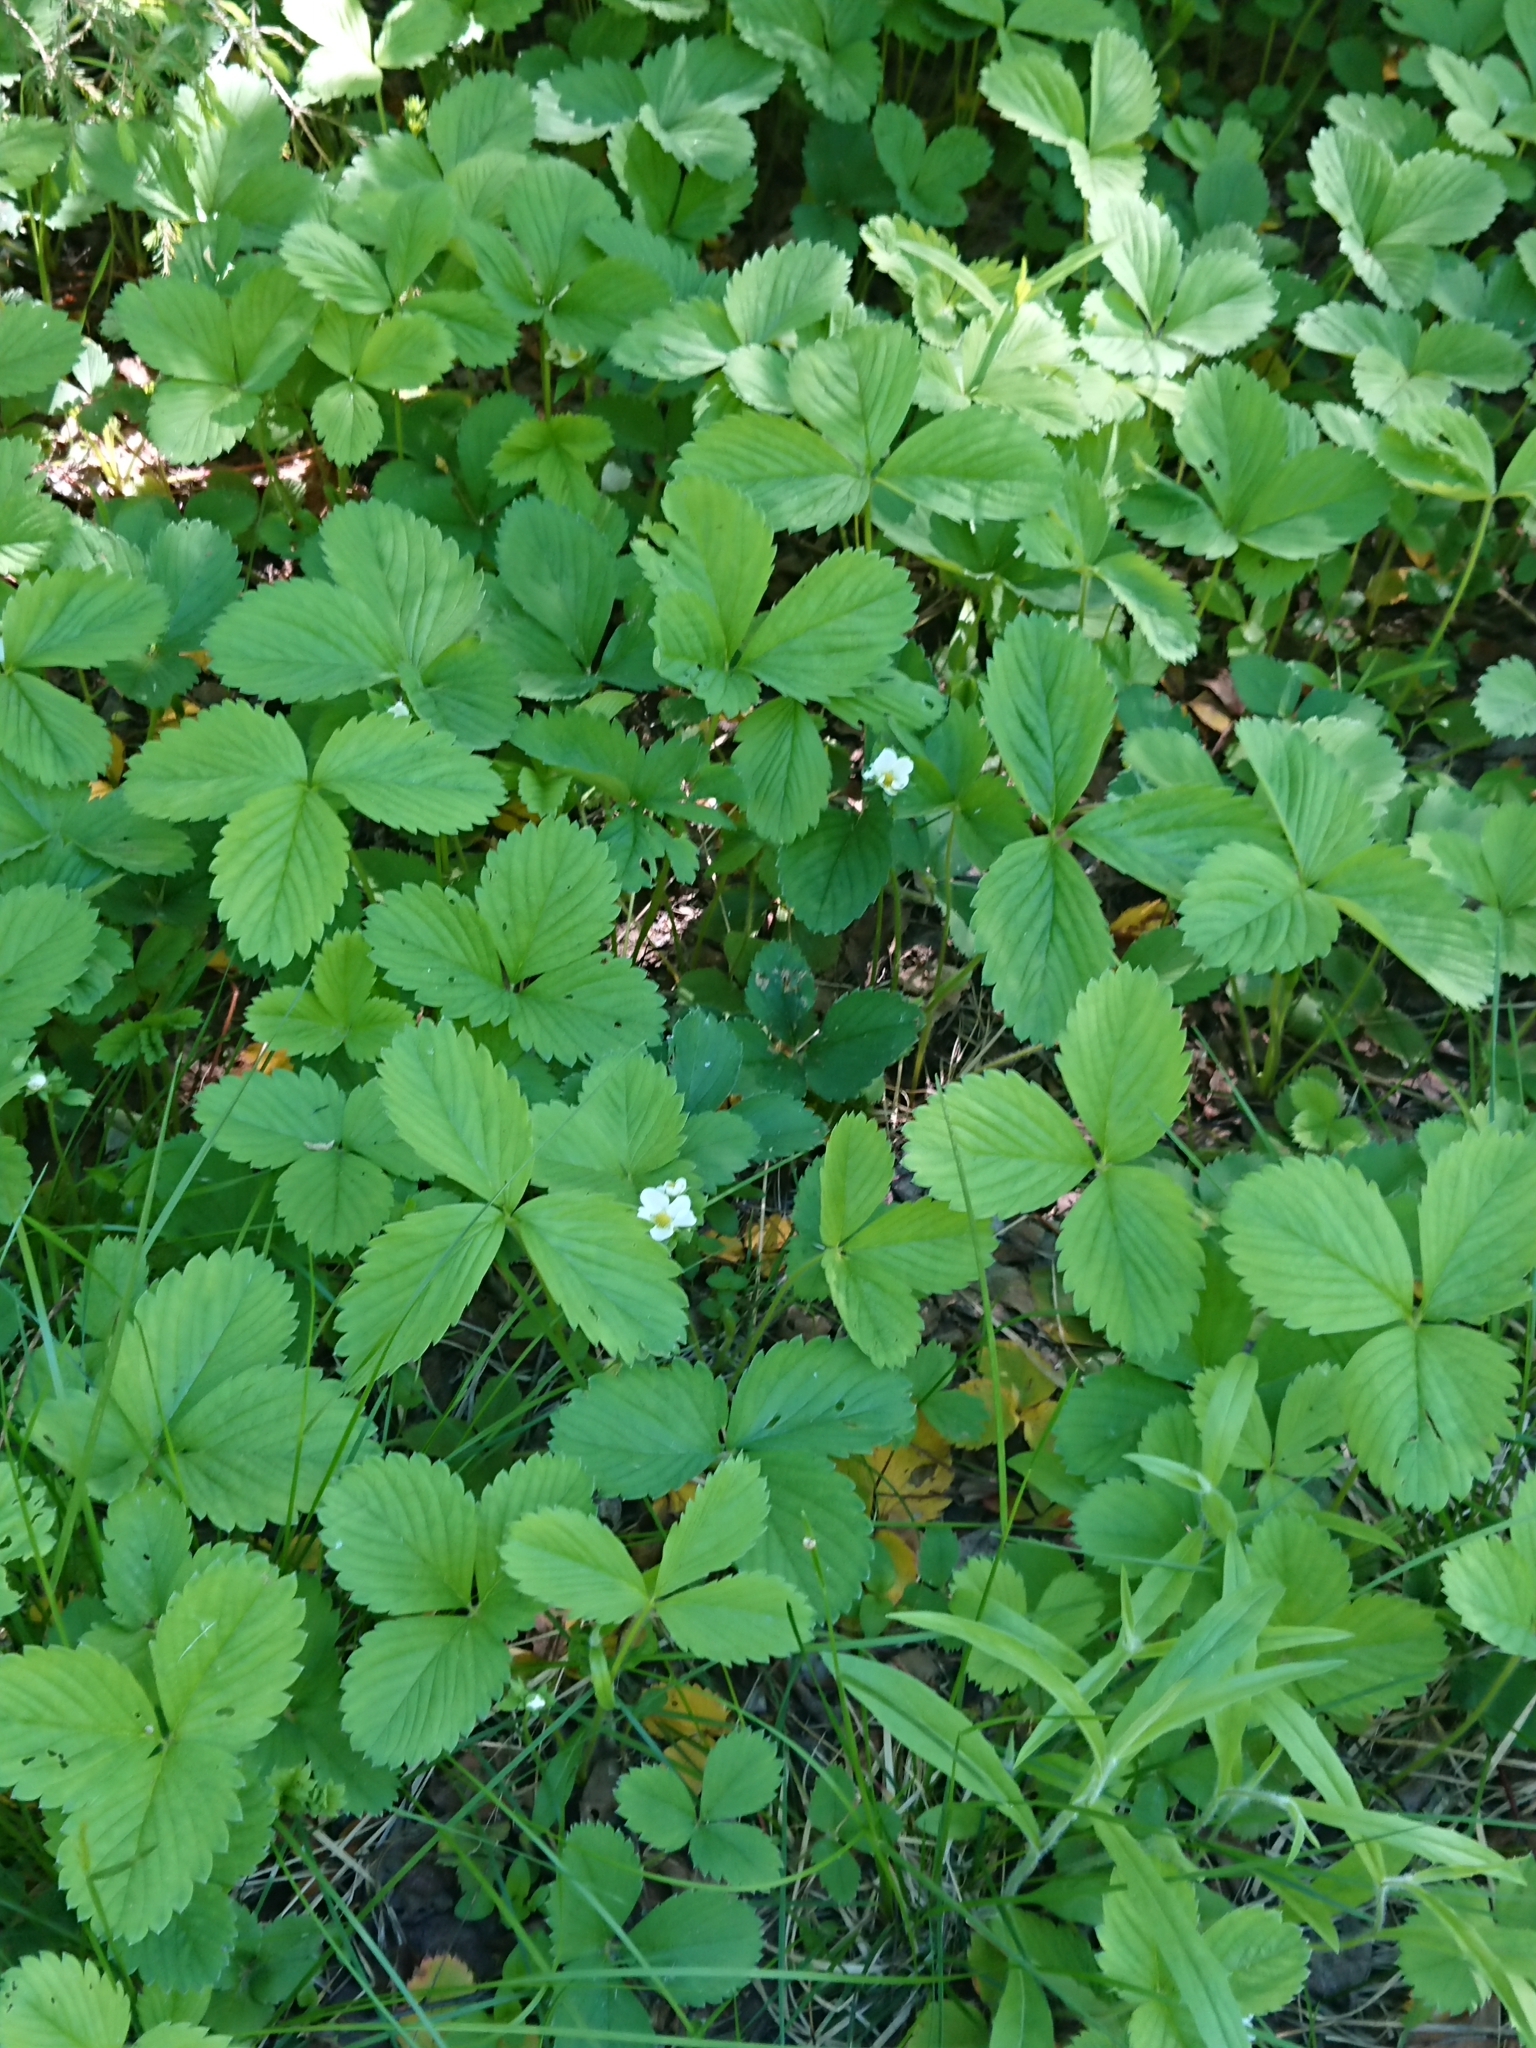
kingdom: Plantae
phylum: Tracheophyta
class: Magnoliopsida
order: Rosales
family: Rosaceae
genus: Fragaria
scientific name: Fragaria ananassa
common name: Garden strawberry
